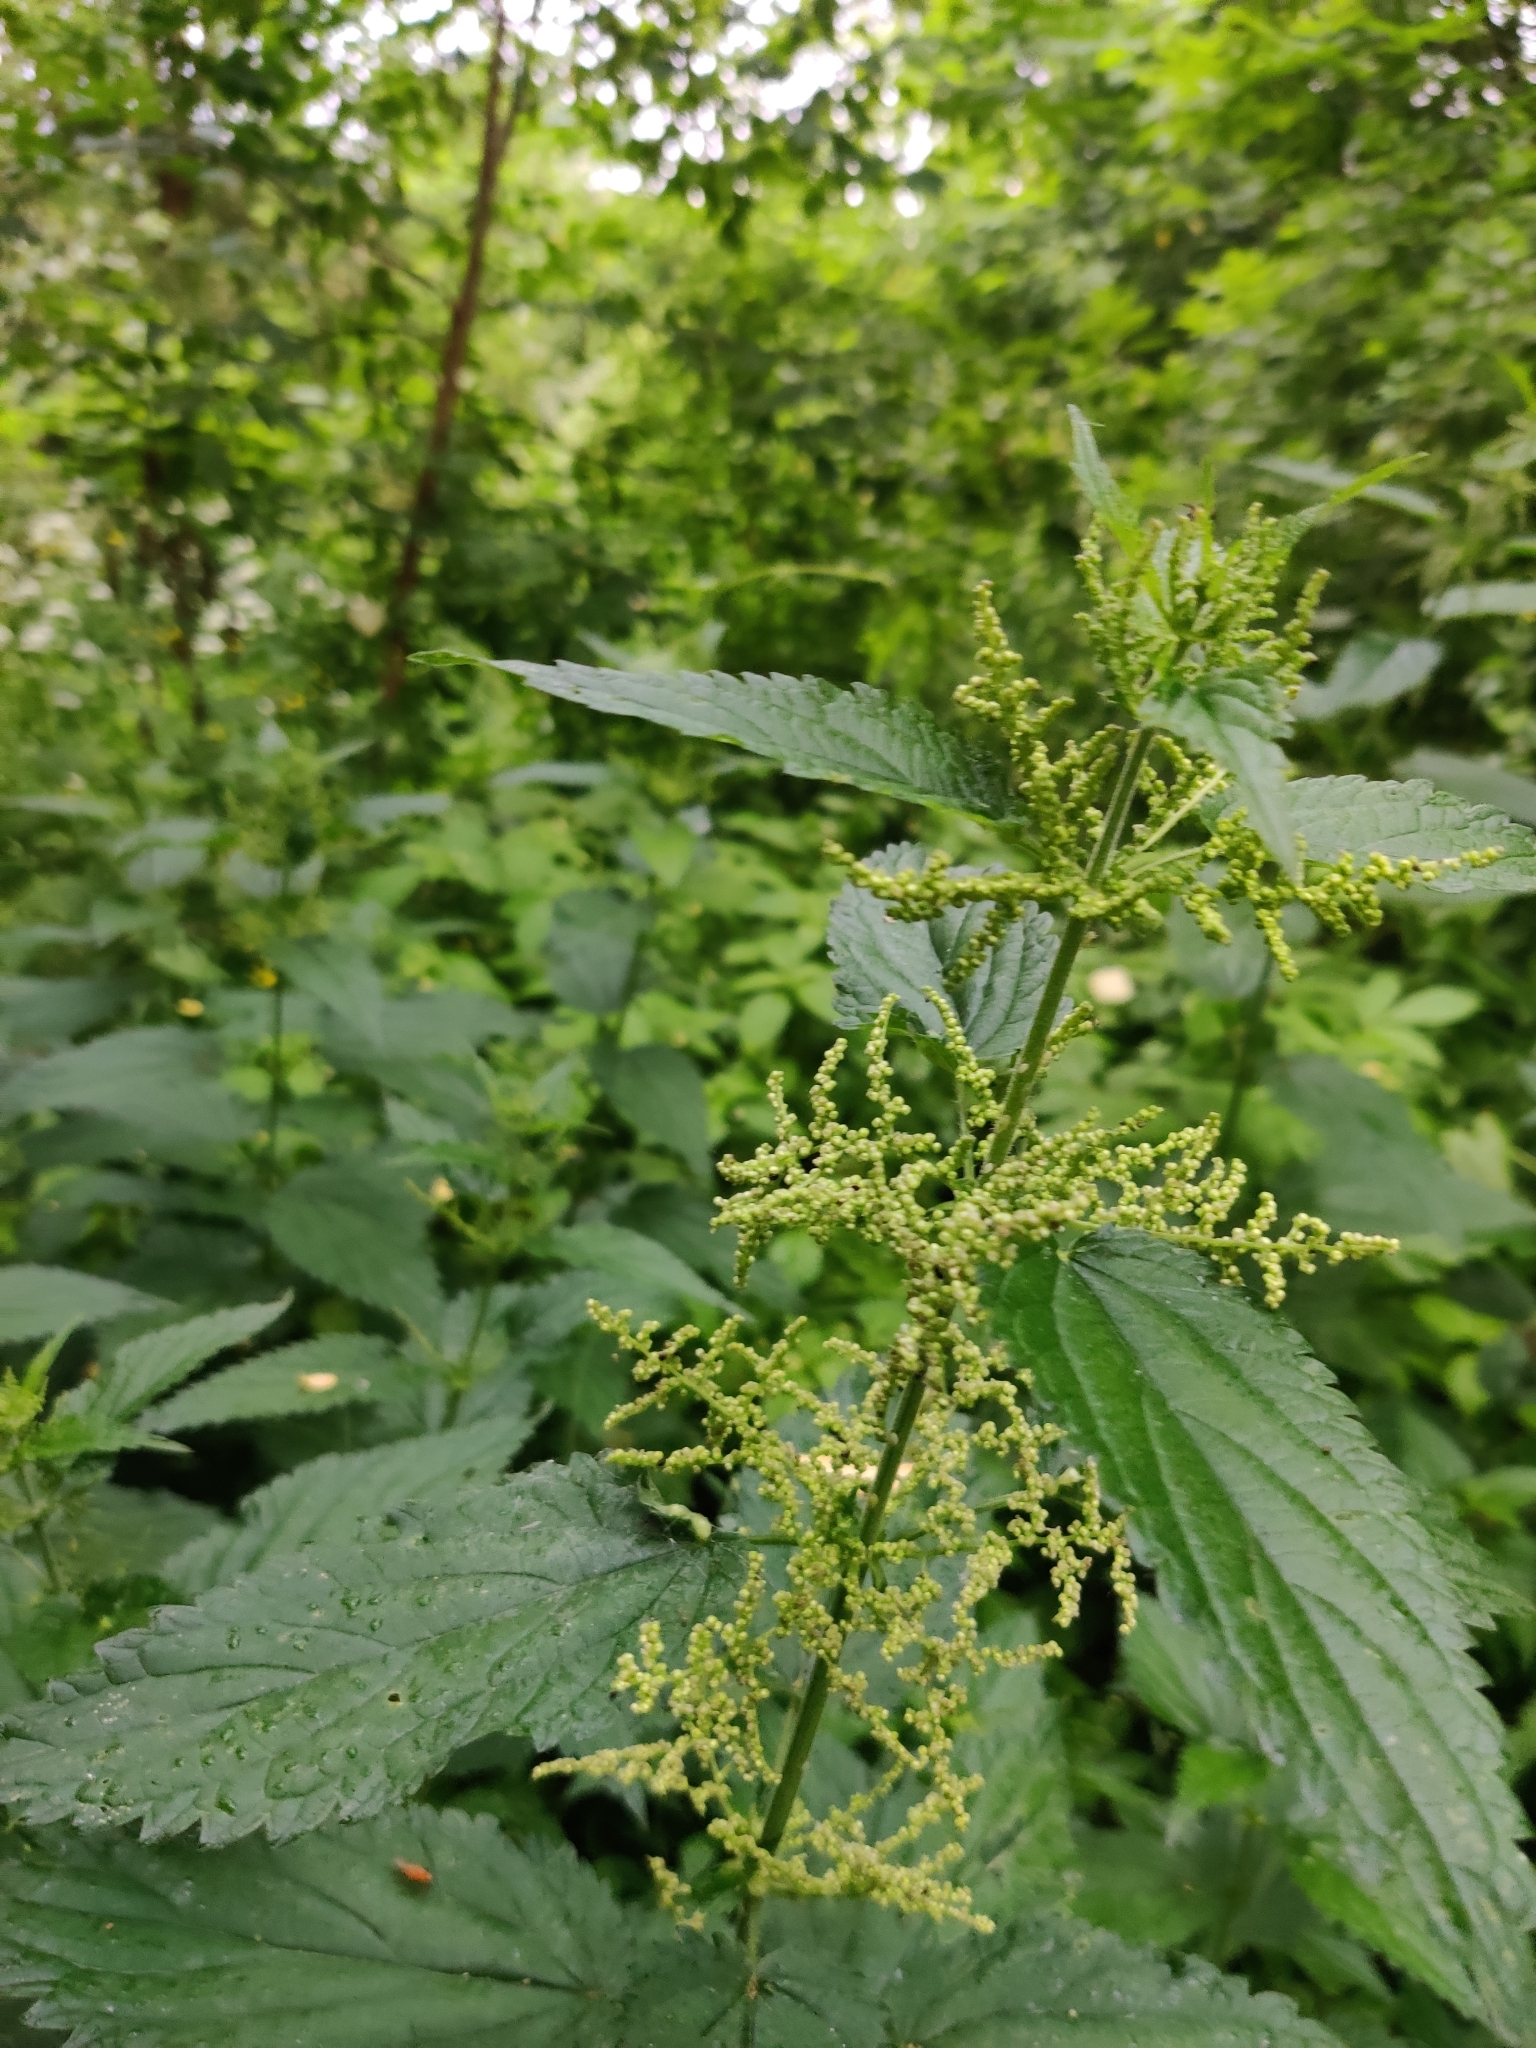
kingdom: Plantae
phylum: Tracheophyta
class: Magnoliopsida
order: Rosales
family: Urticaceae
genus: Urtica
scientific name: Urtica dioica
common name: Common nettle
